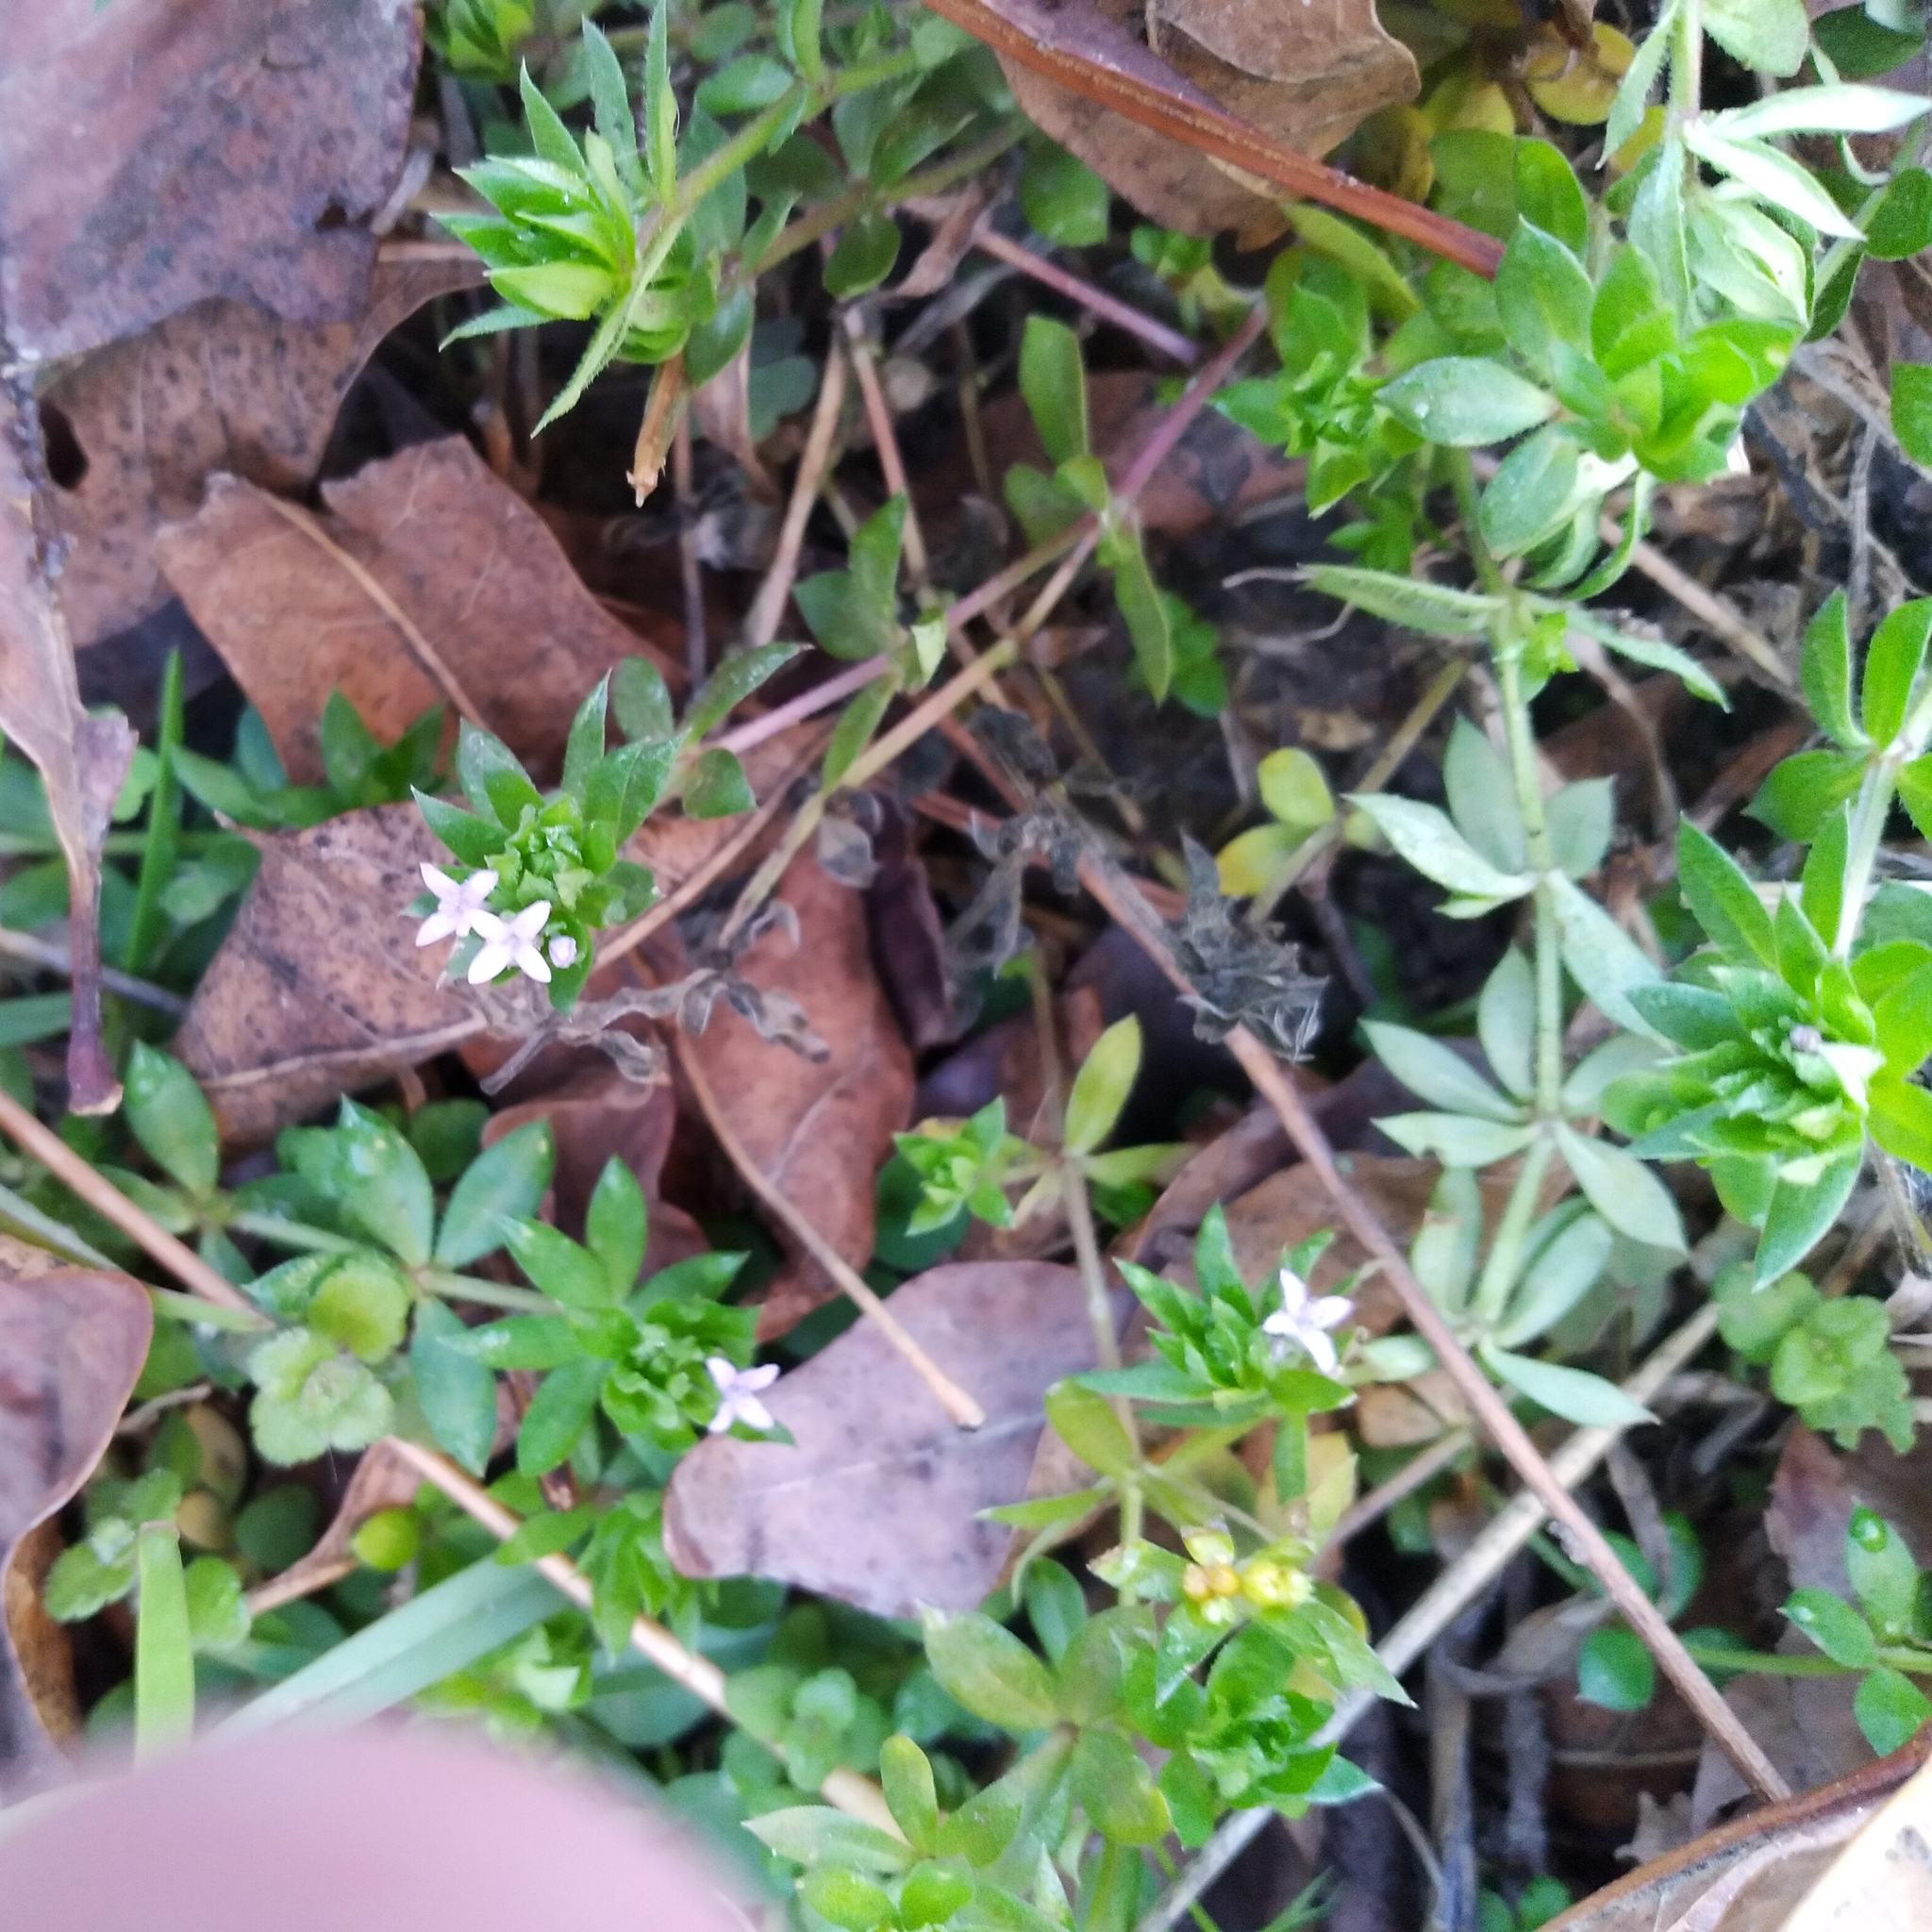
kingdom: Plantae
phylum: Tracheophyta
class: Magnoliopsida
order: Gentianales
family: Rubiaceae
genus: Sherardia
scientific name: Sherardia arvensis
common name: Field madder
